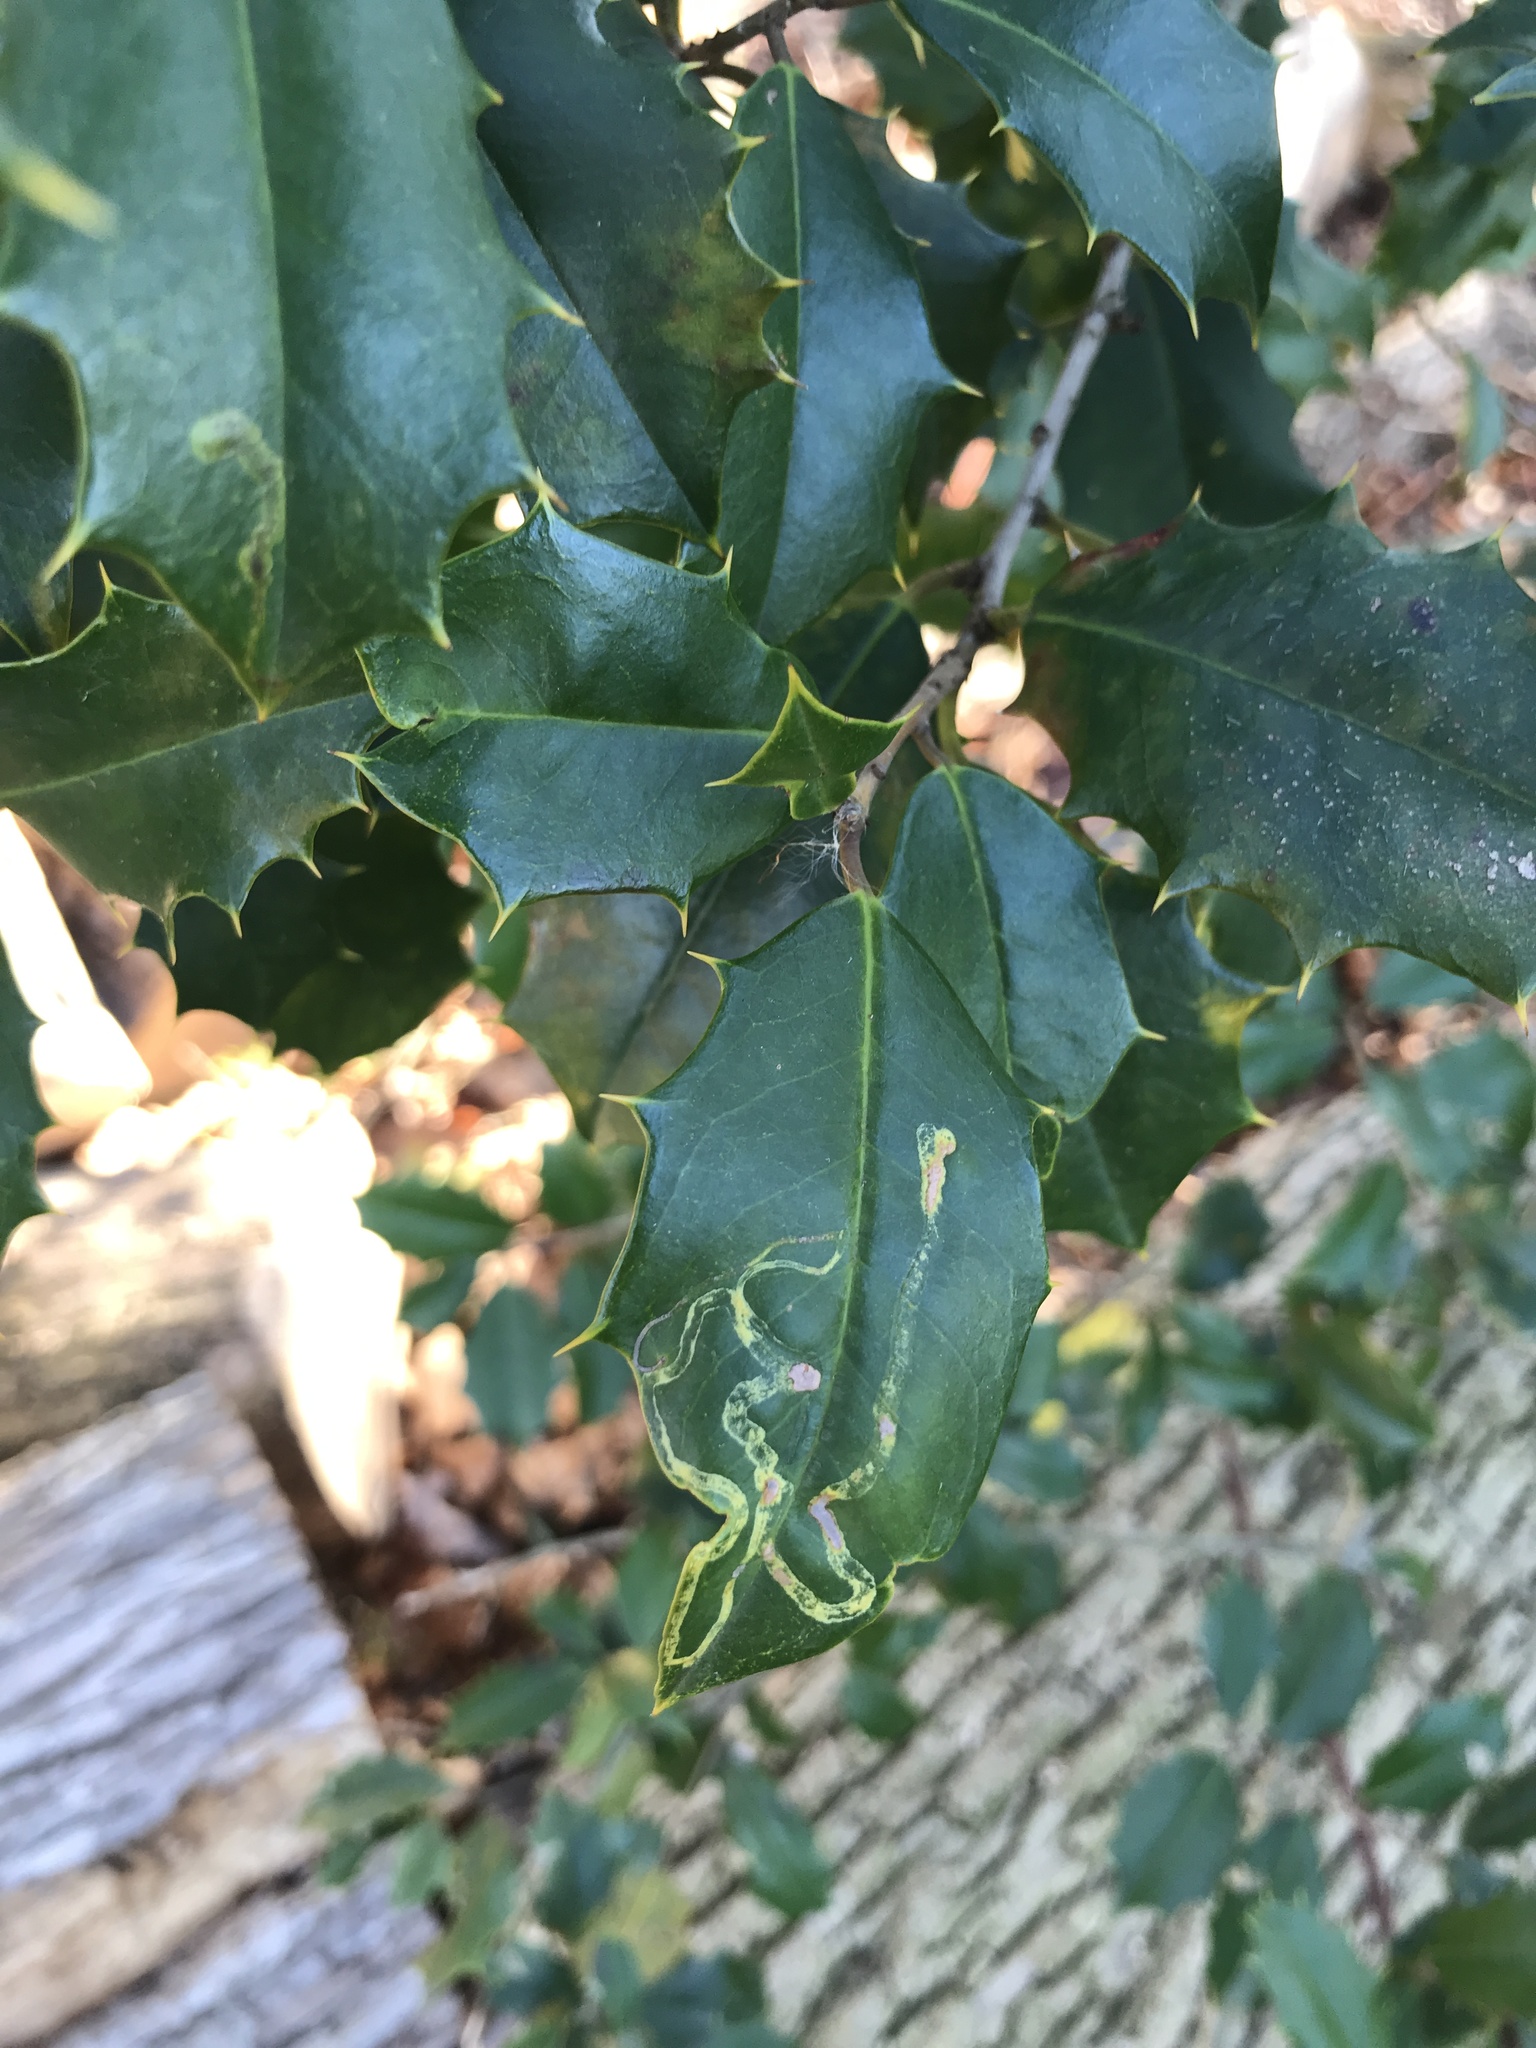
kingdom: Animalia
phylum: Arthropoda
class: Insecta
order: Diptera
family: Agromyzidae
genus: Phytomyza
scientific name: Phytomyza opacae
